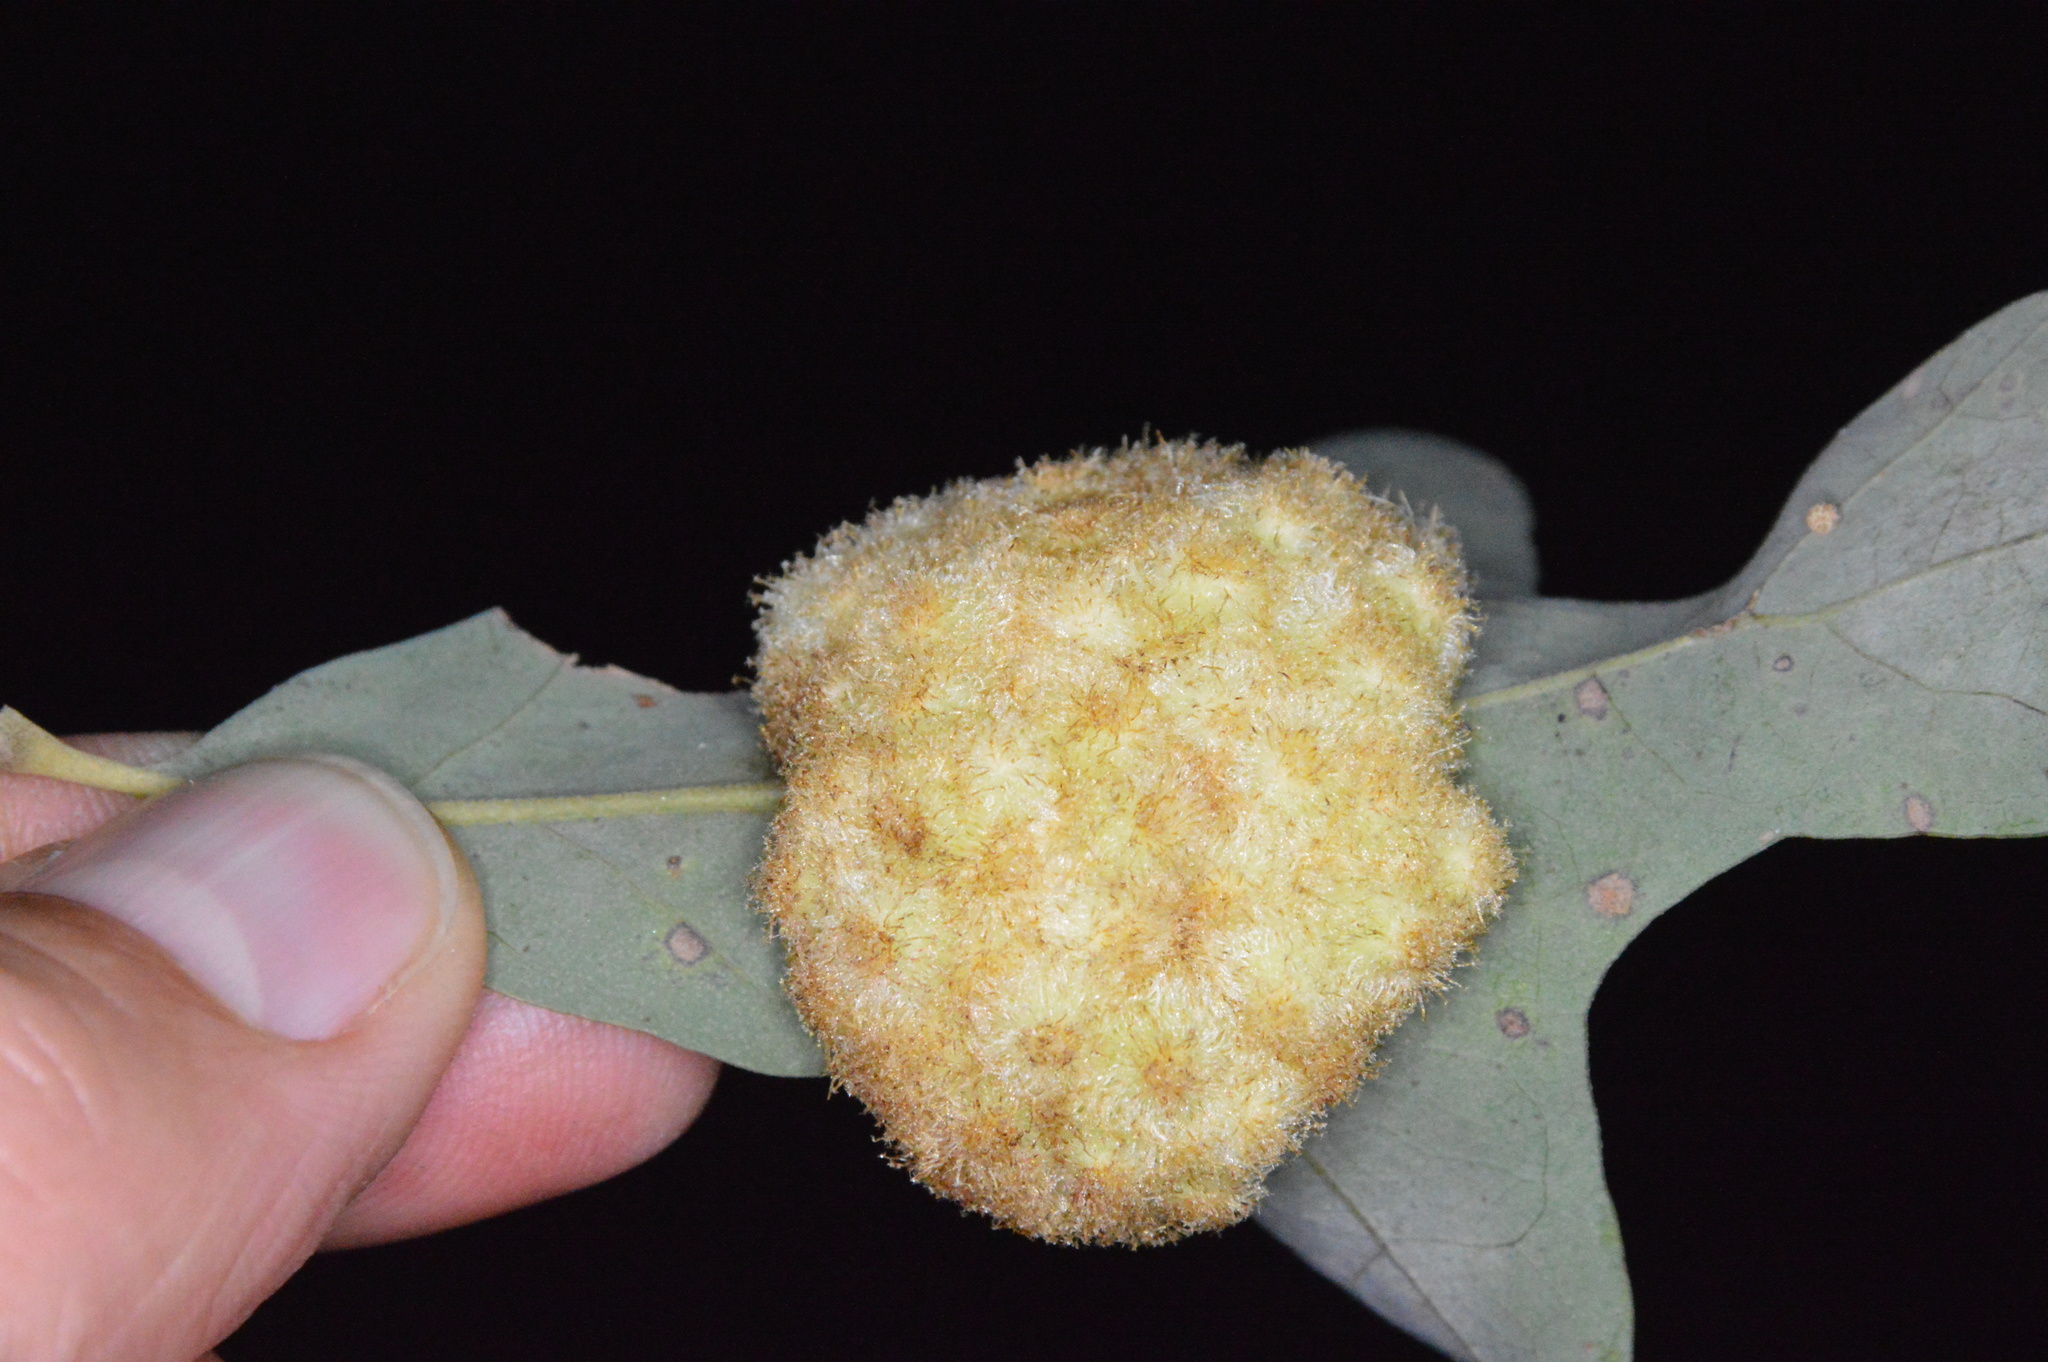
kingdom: Animalia
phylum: Arthropoda
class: Insecta
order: Hymenoptera
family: Cynipidae
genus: Andricus
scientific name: Andricus
